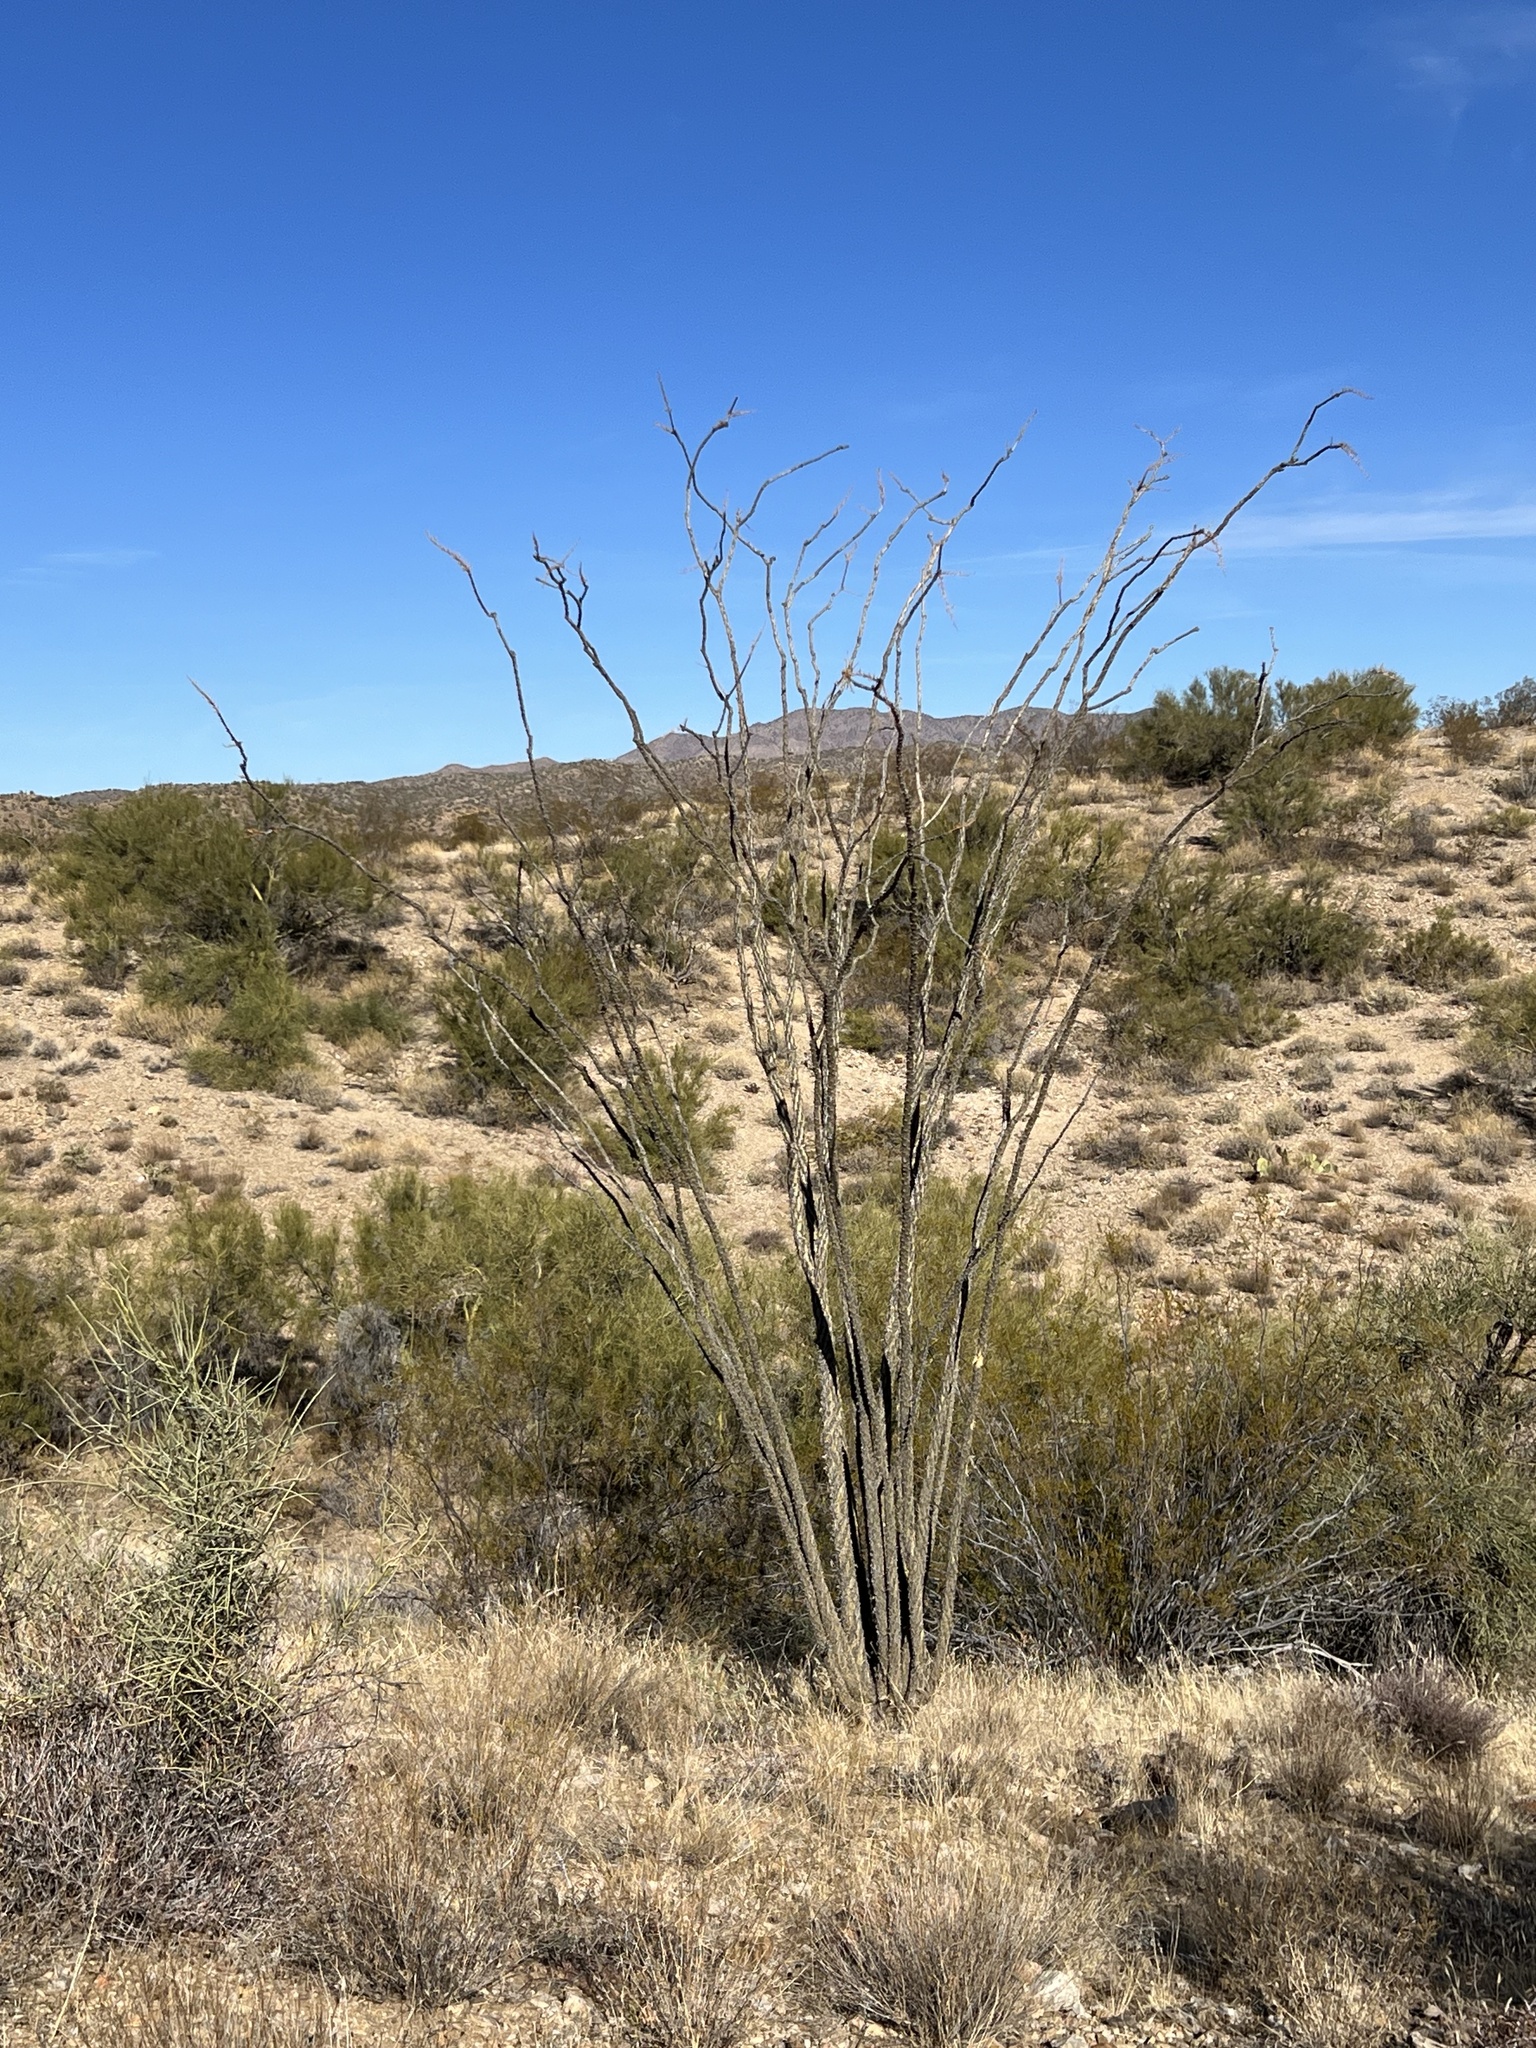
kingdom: Plantae
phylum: Tracheophyta
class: Magnoliopsida
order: Ericales
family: Fouquieriaceae
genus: Fouquieria
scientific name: Fouquieria splendens
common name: Vine-cactus
